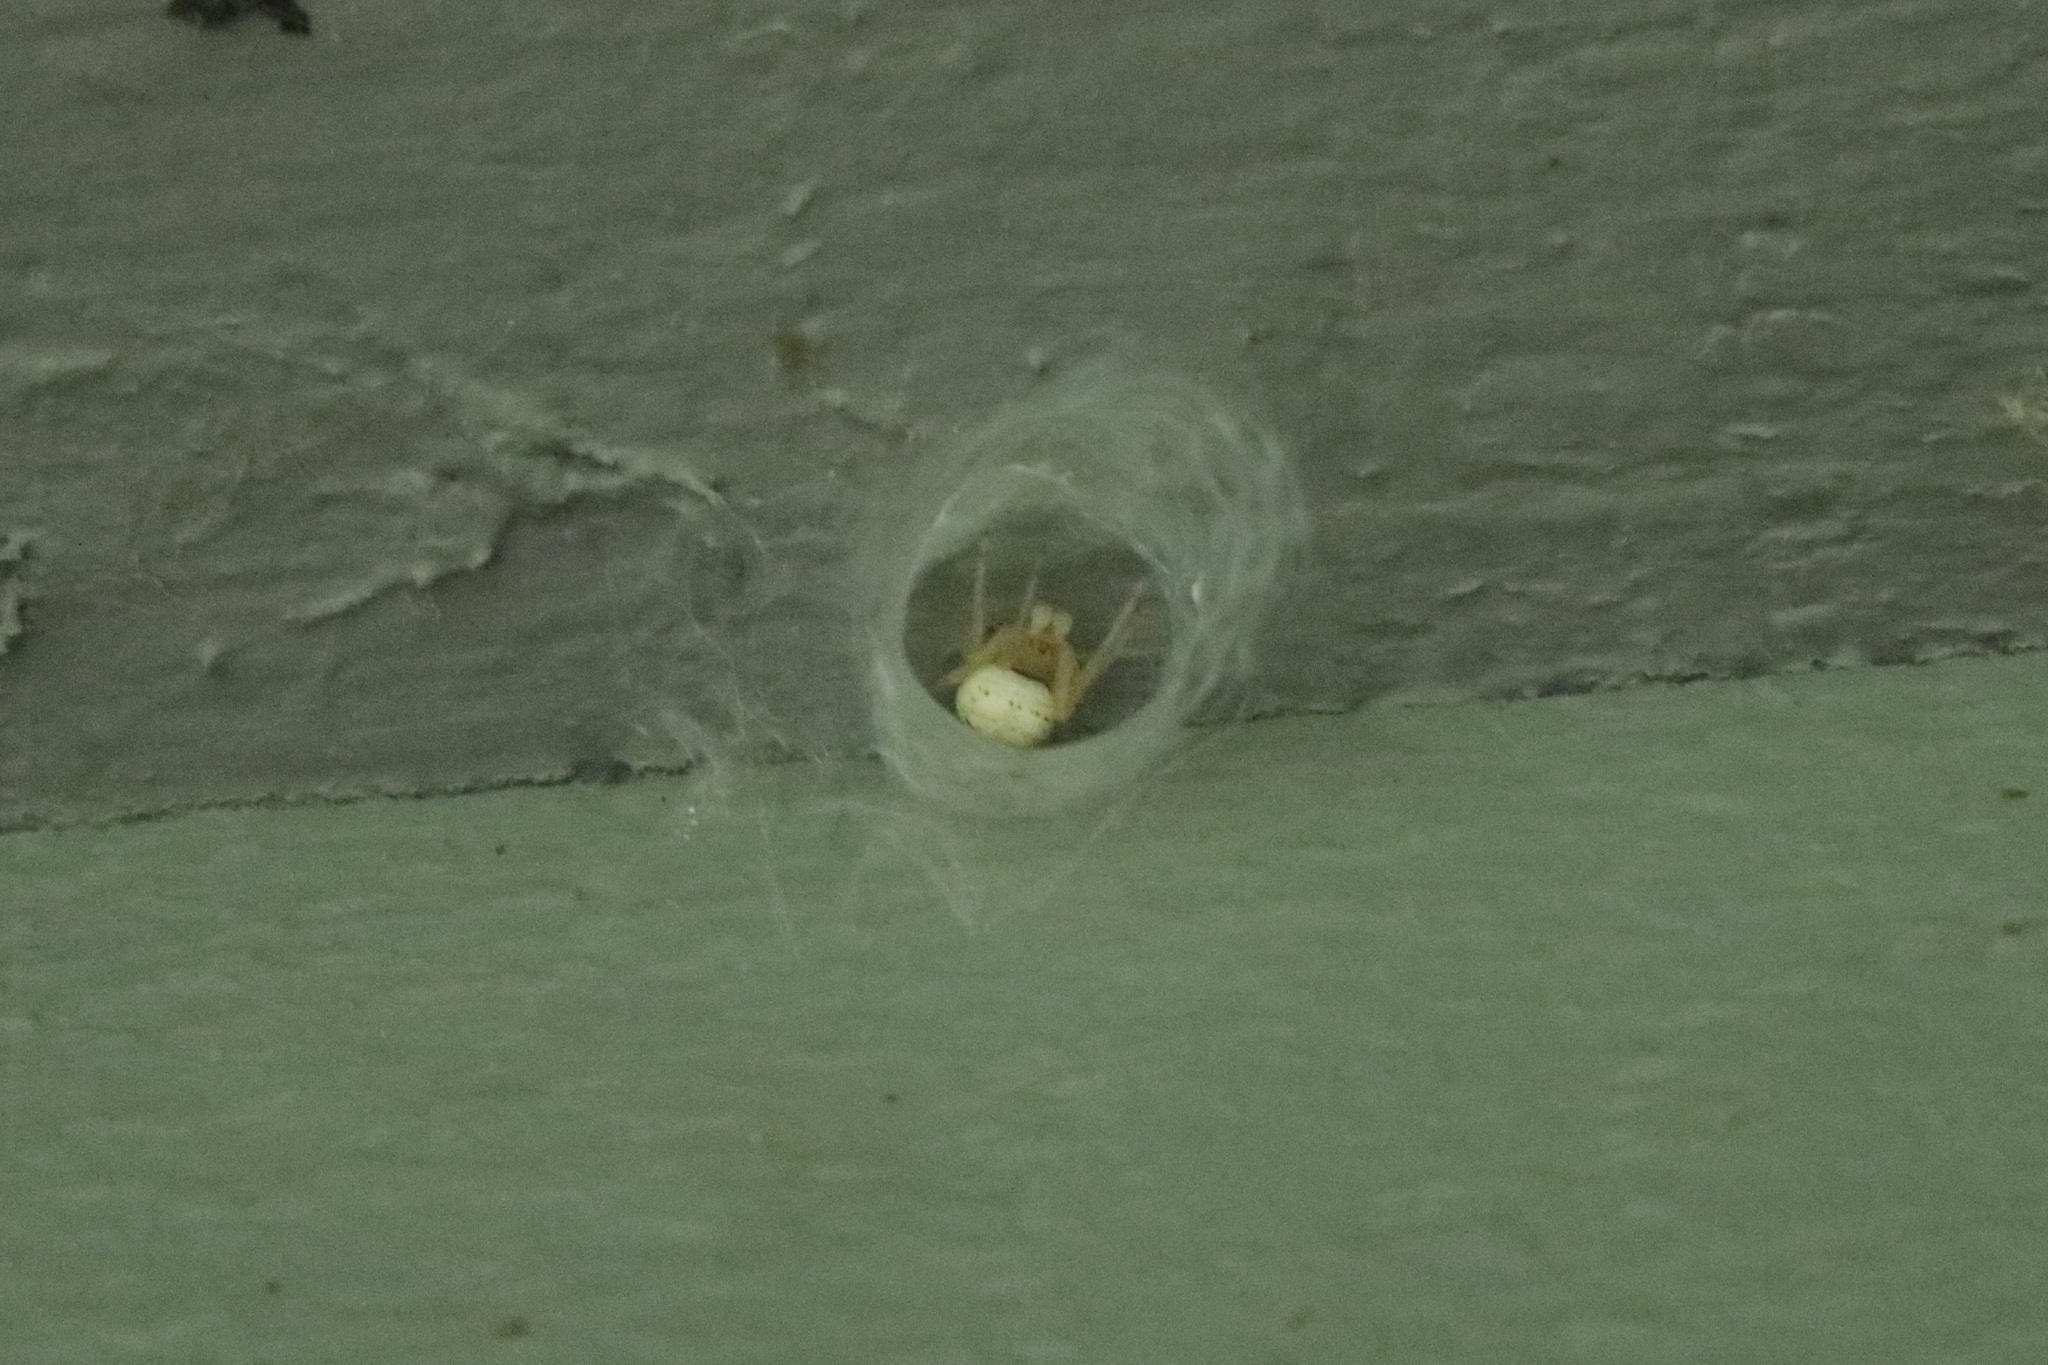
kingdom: Animalia
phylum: Arthropoda
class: Arachnida
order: Araneae
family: Araneidae
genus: Araneus
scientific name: Araneus thaddeus
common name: Lattice orbweaver
